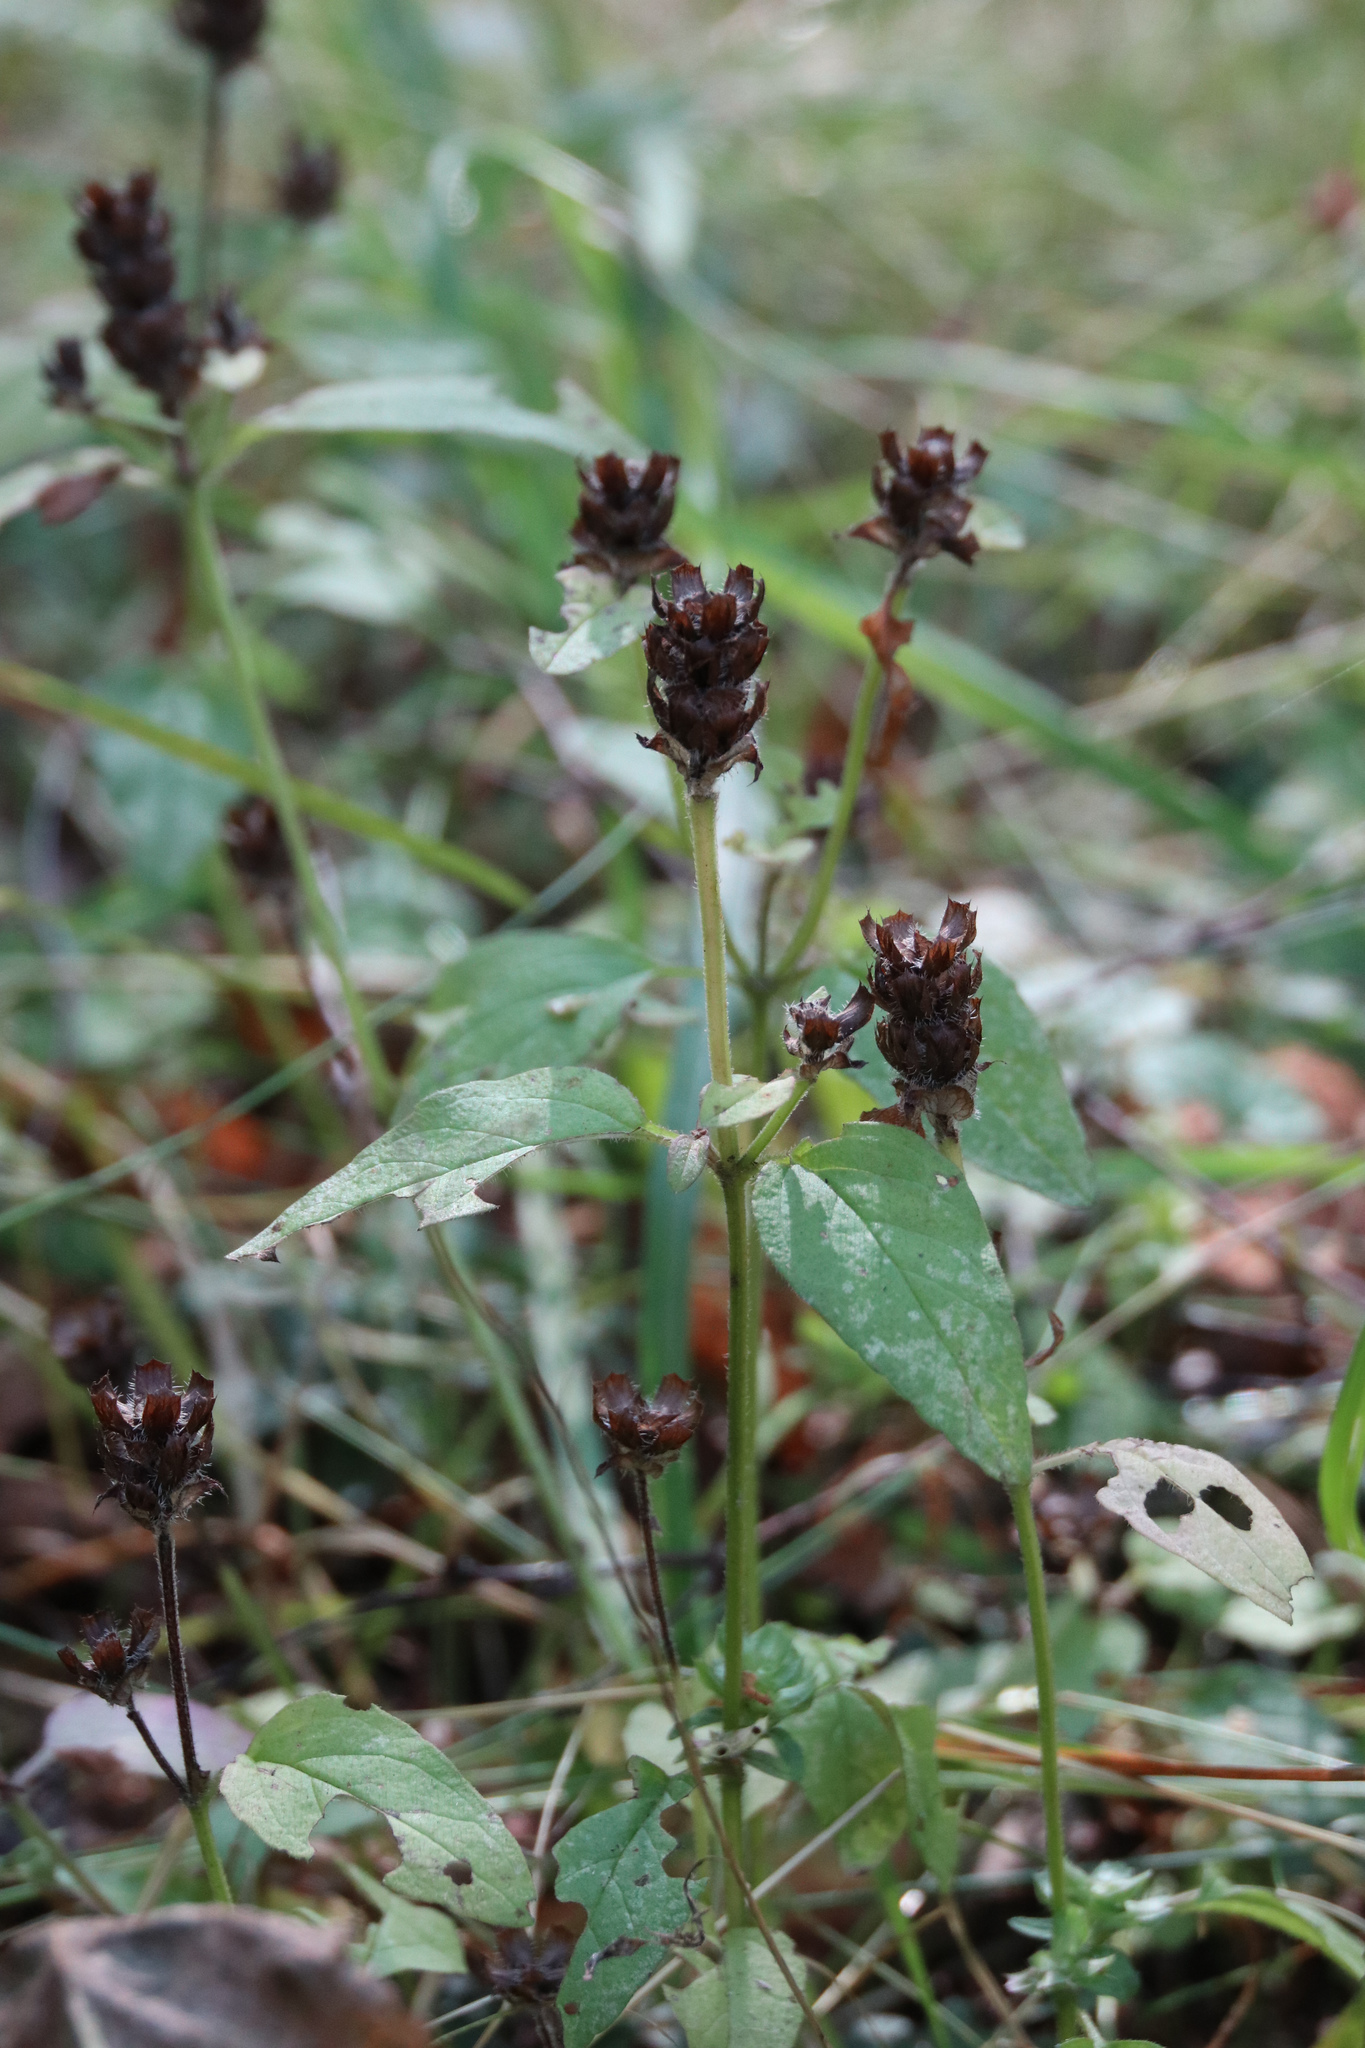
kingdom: Plantae
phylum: Tracheophyta
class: Magnoliopsida
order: Lamiales
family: Lamiaceae
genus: Prunella
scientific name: Prunella vulgaris
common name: Heal-all
